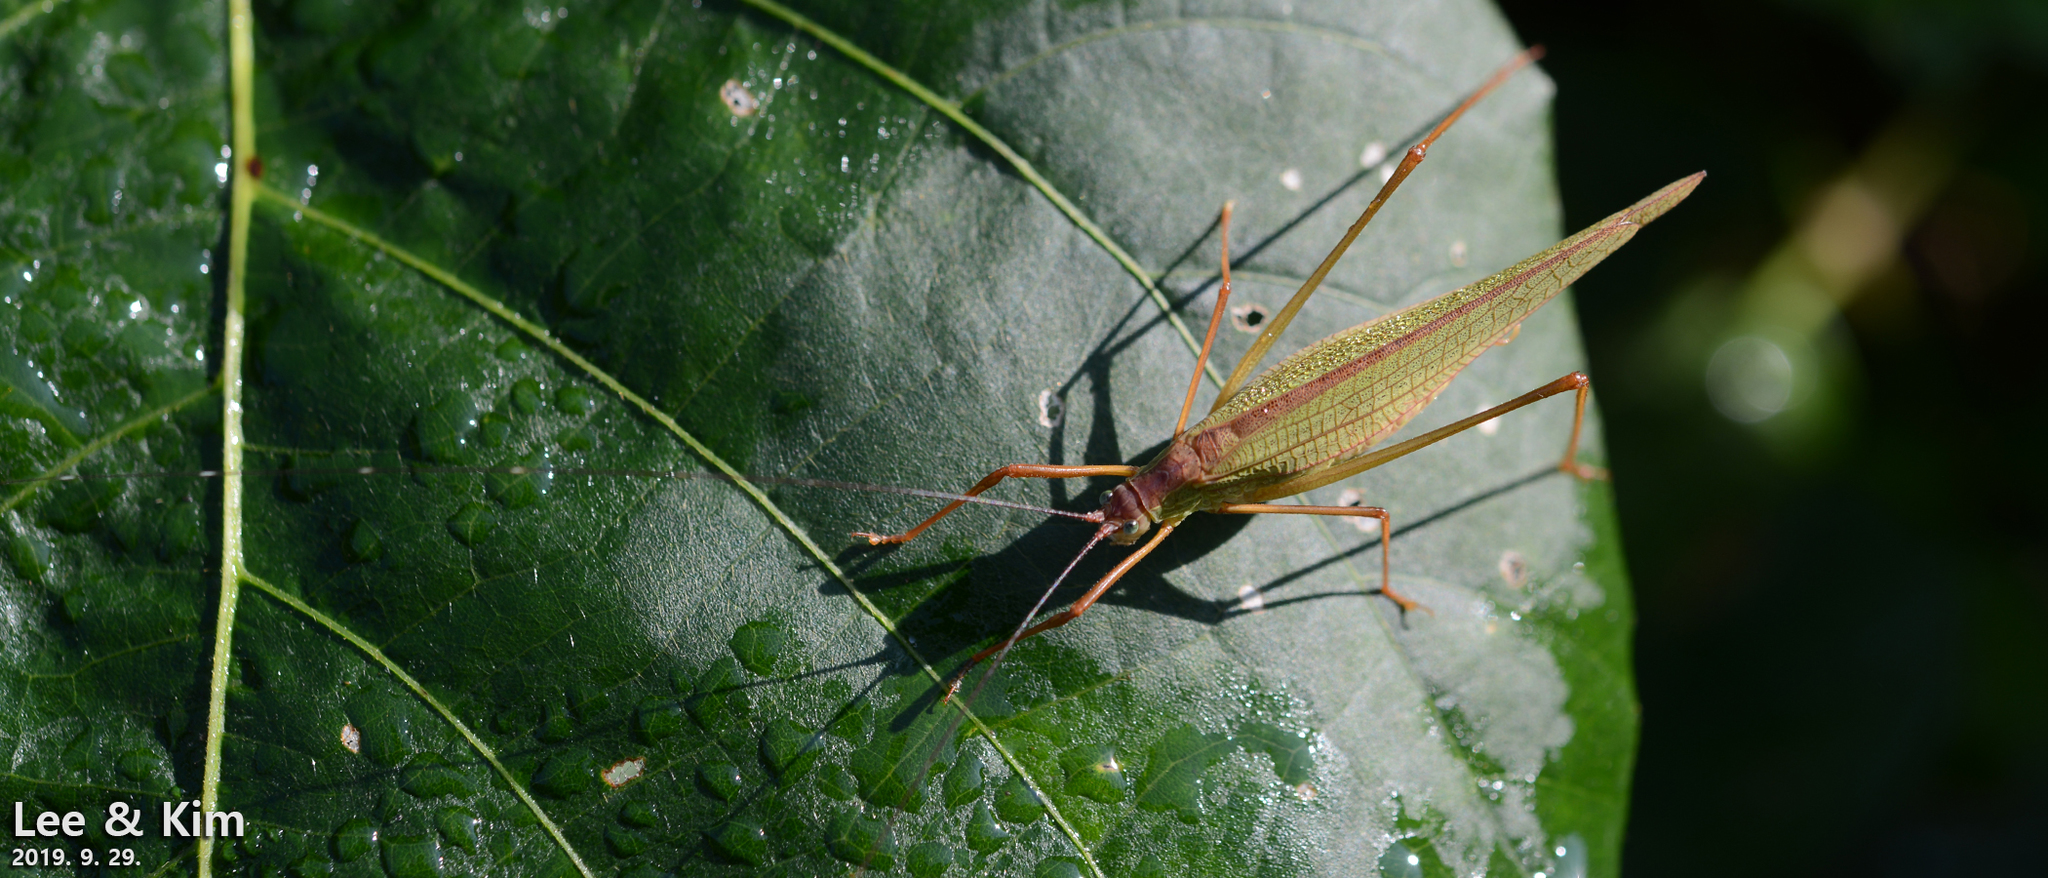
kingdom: Animalia
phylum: Arthropoda
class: Insecta
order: Orthoptera
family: Tettigoniidae
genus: Elimaea
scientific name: Elimaea fallax
